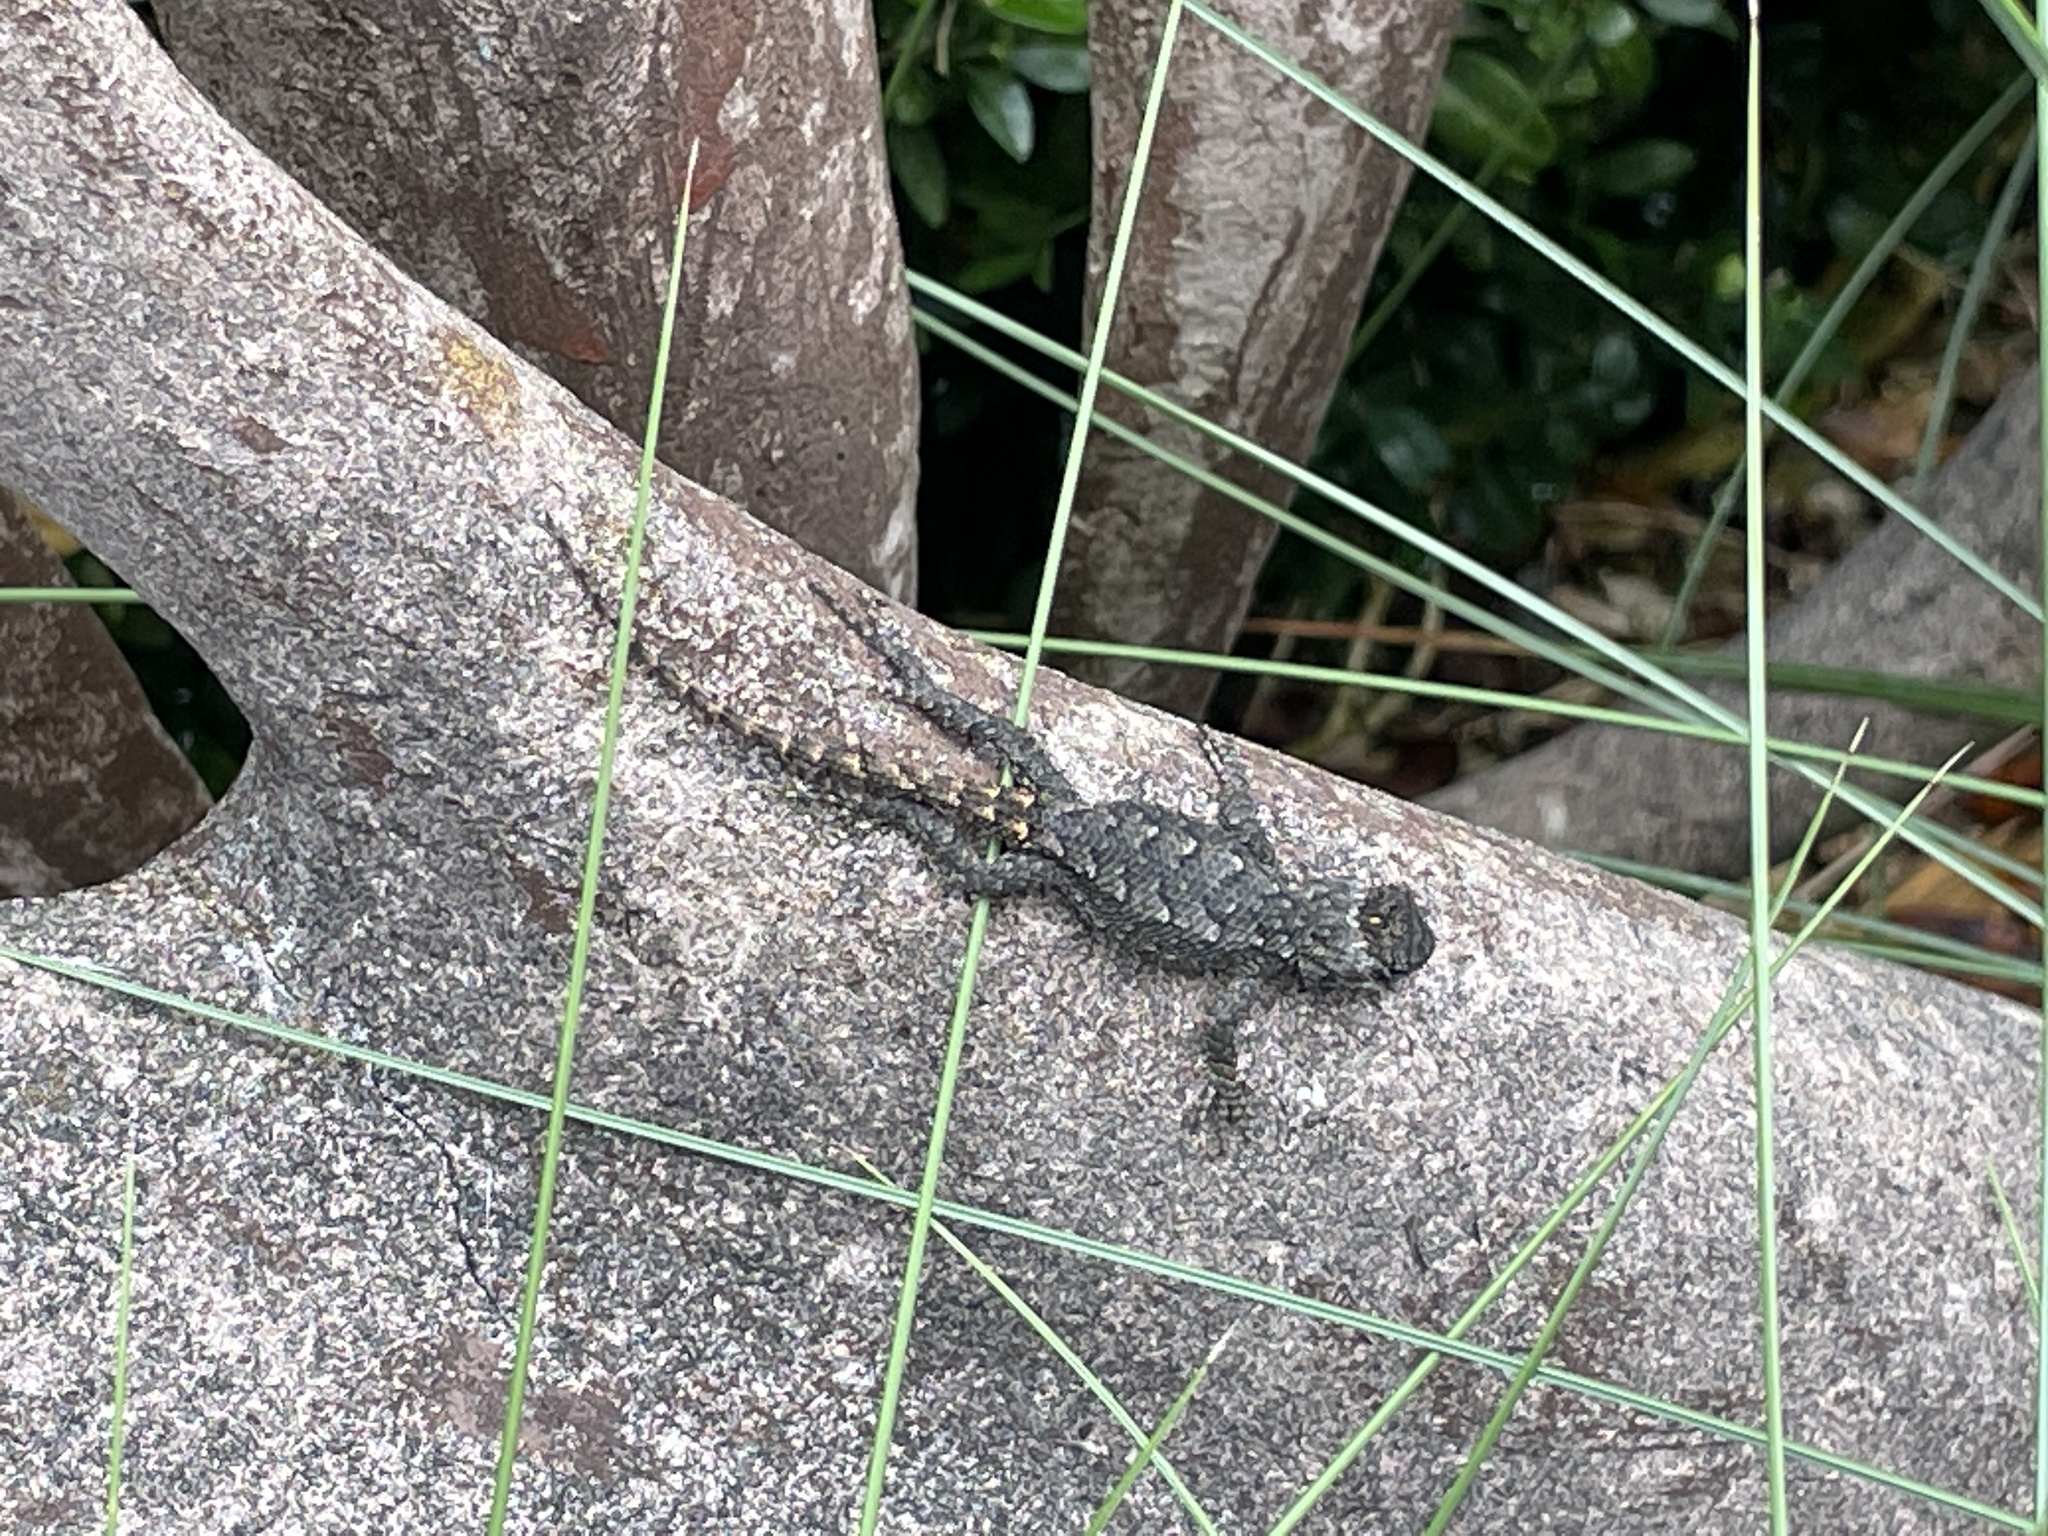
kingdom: Animalia
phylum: Chordata
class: Squamata
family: Phrynosomatidae
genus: Sceloporus
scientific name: Sceloporus undulatus
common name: Eastern fence lizard
